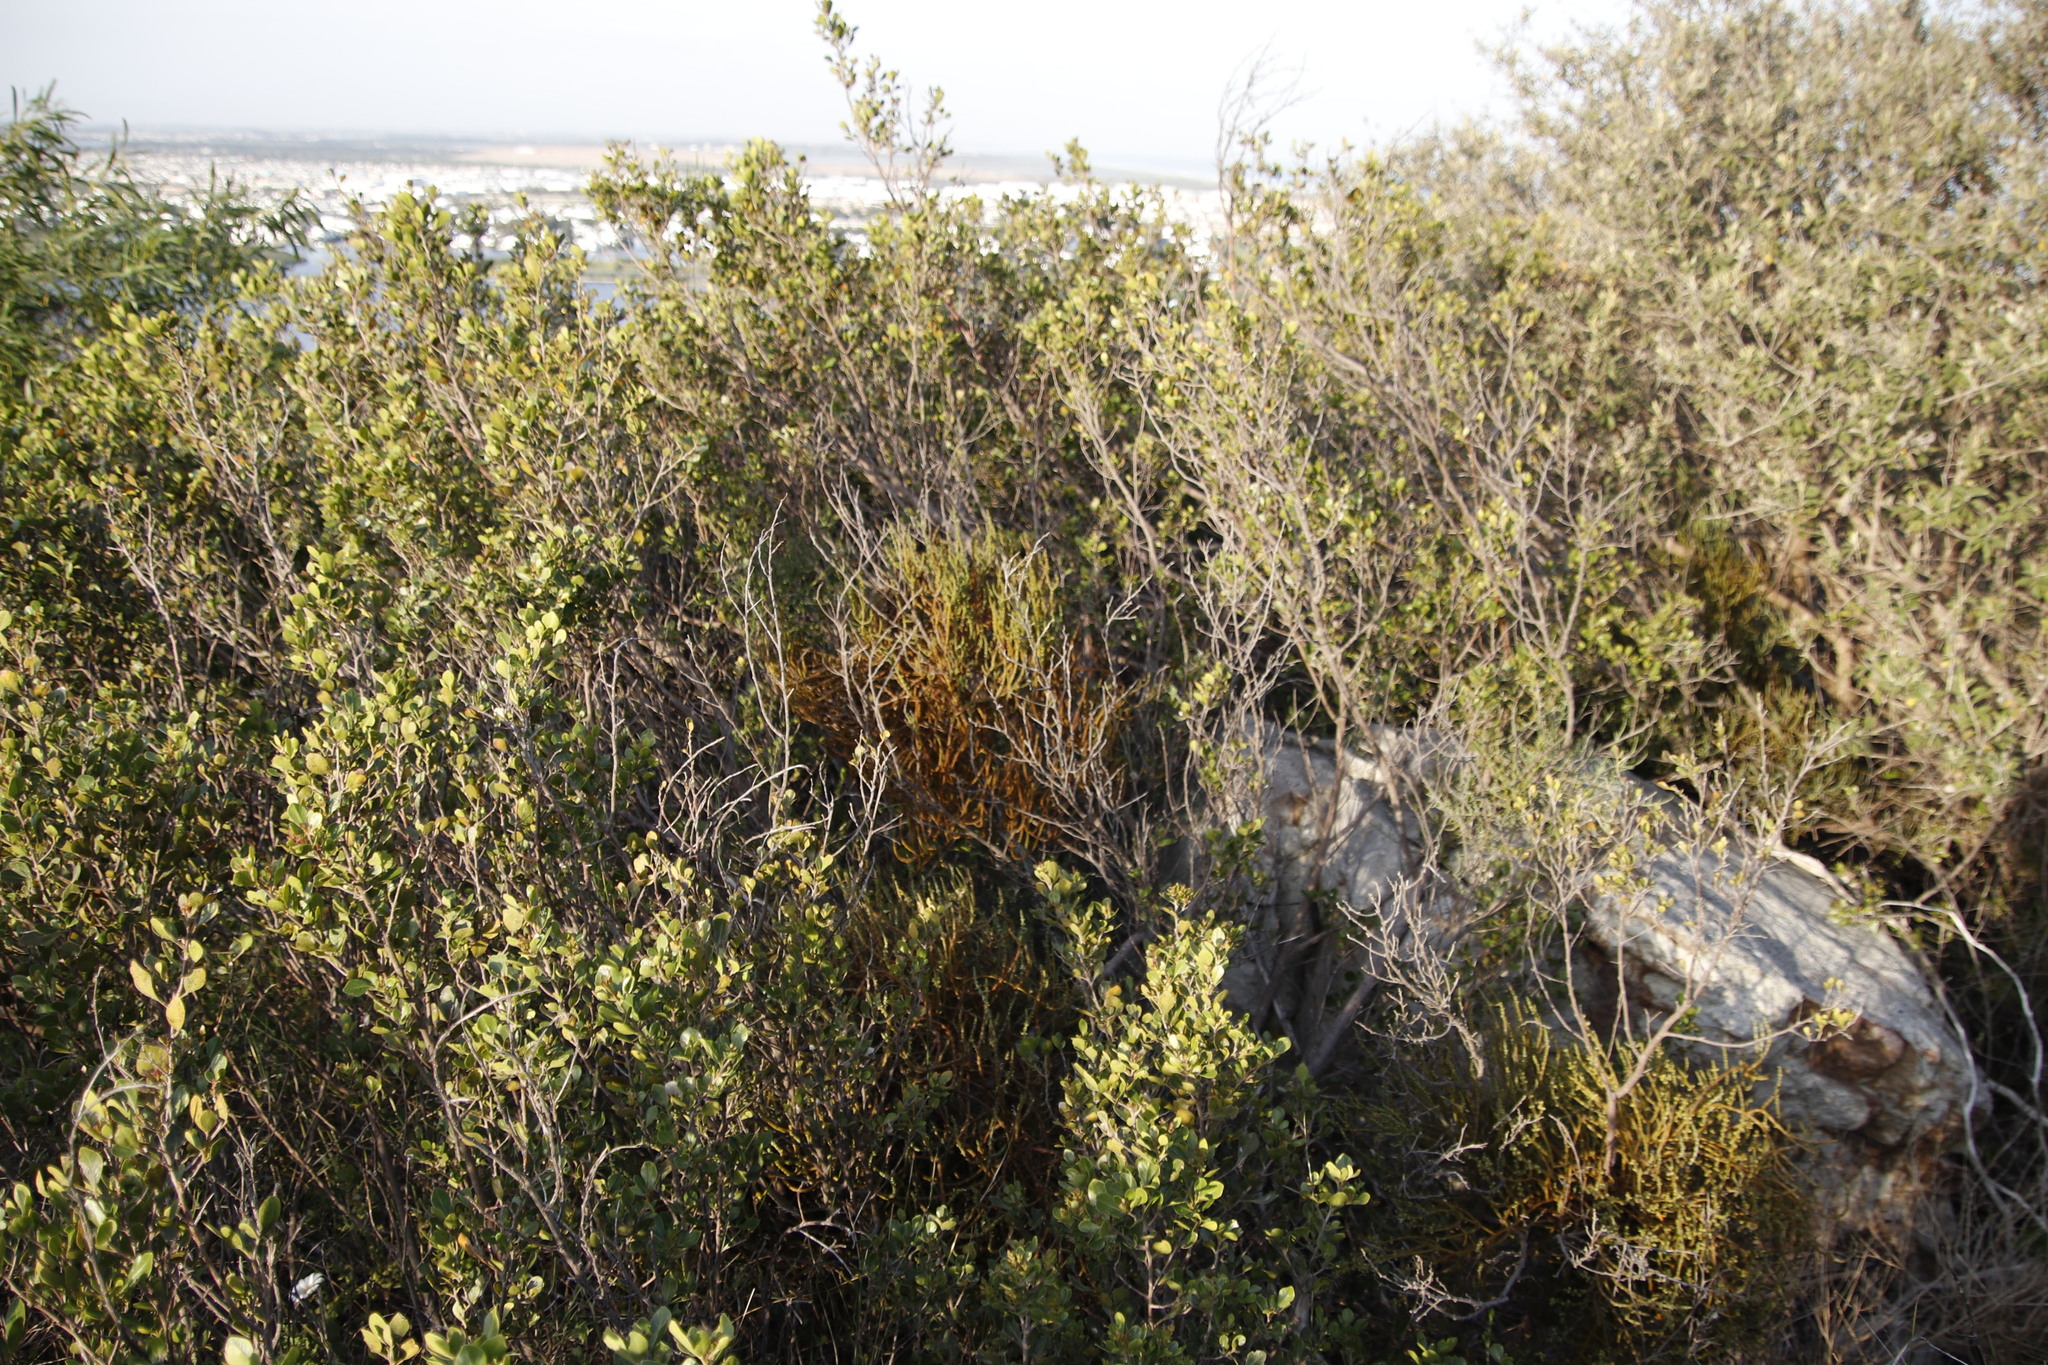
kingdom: Plantae
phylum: Tracheophyta
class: Magnoliopsida
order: Sapindales
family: Anacardiaceae
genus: Searsia
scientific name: Searsia lucida
